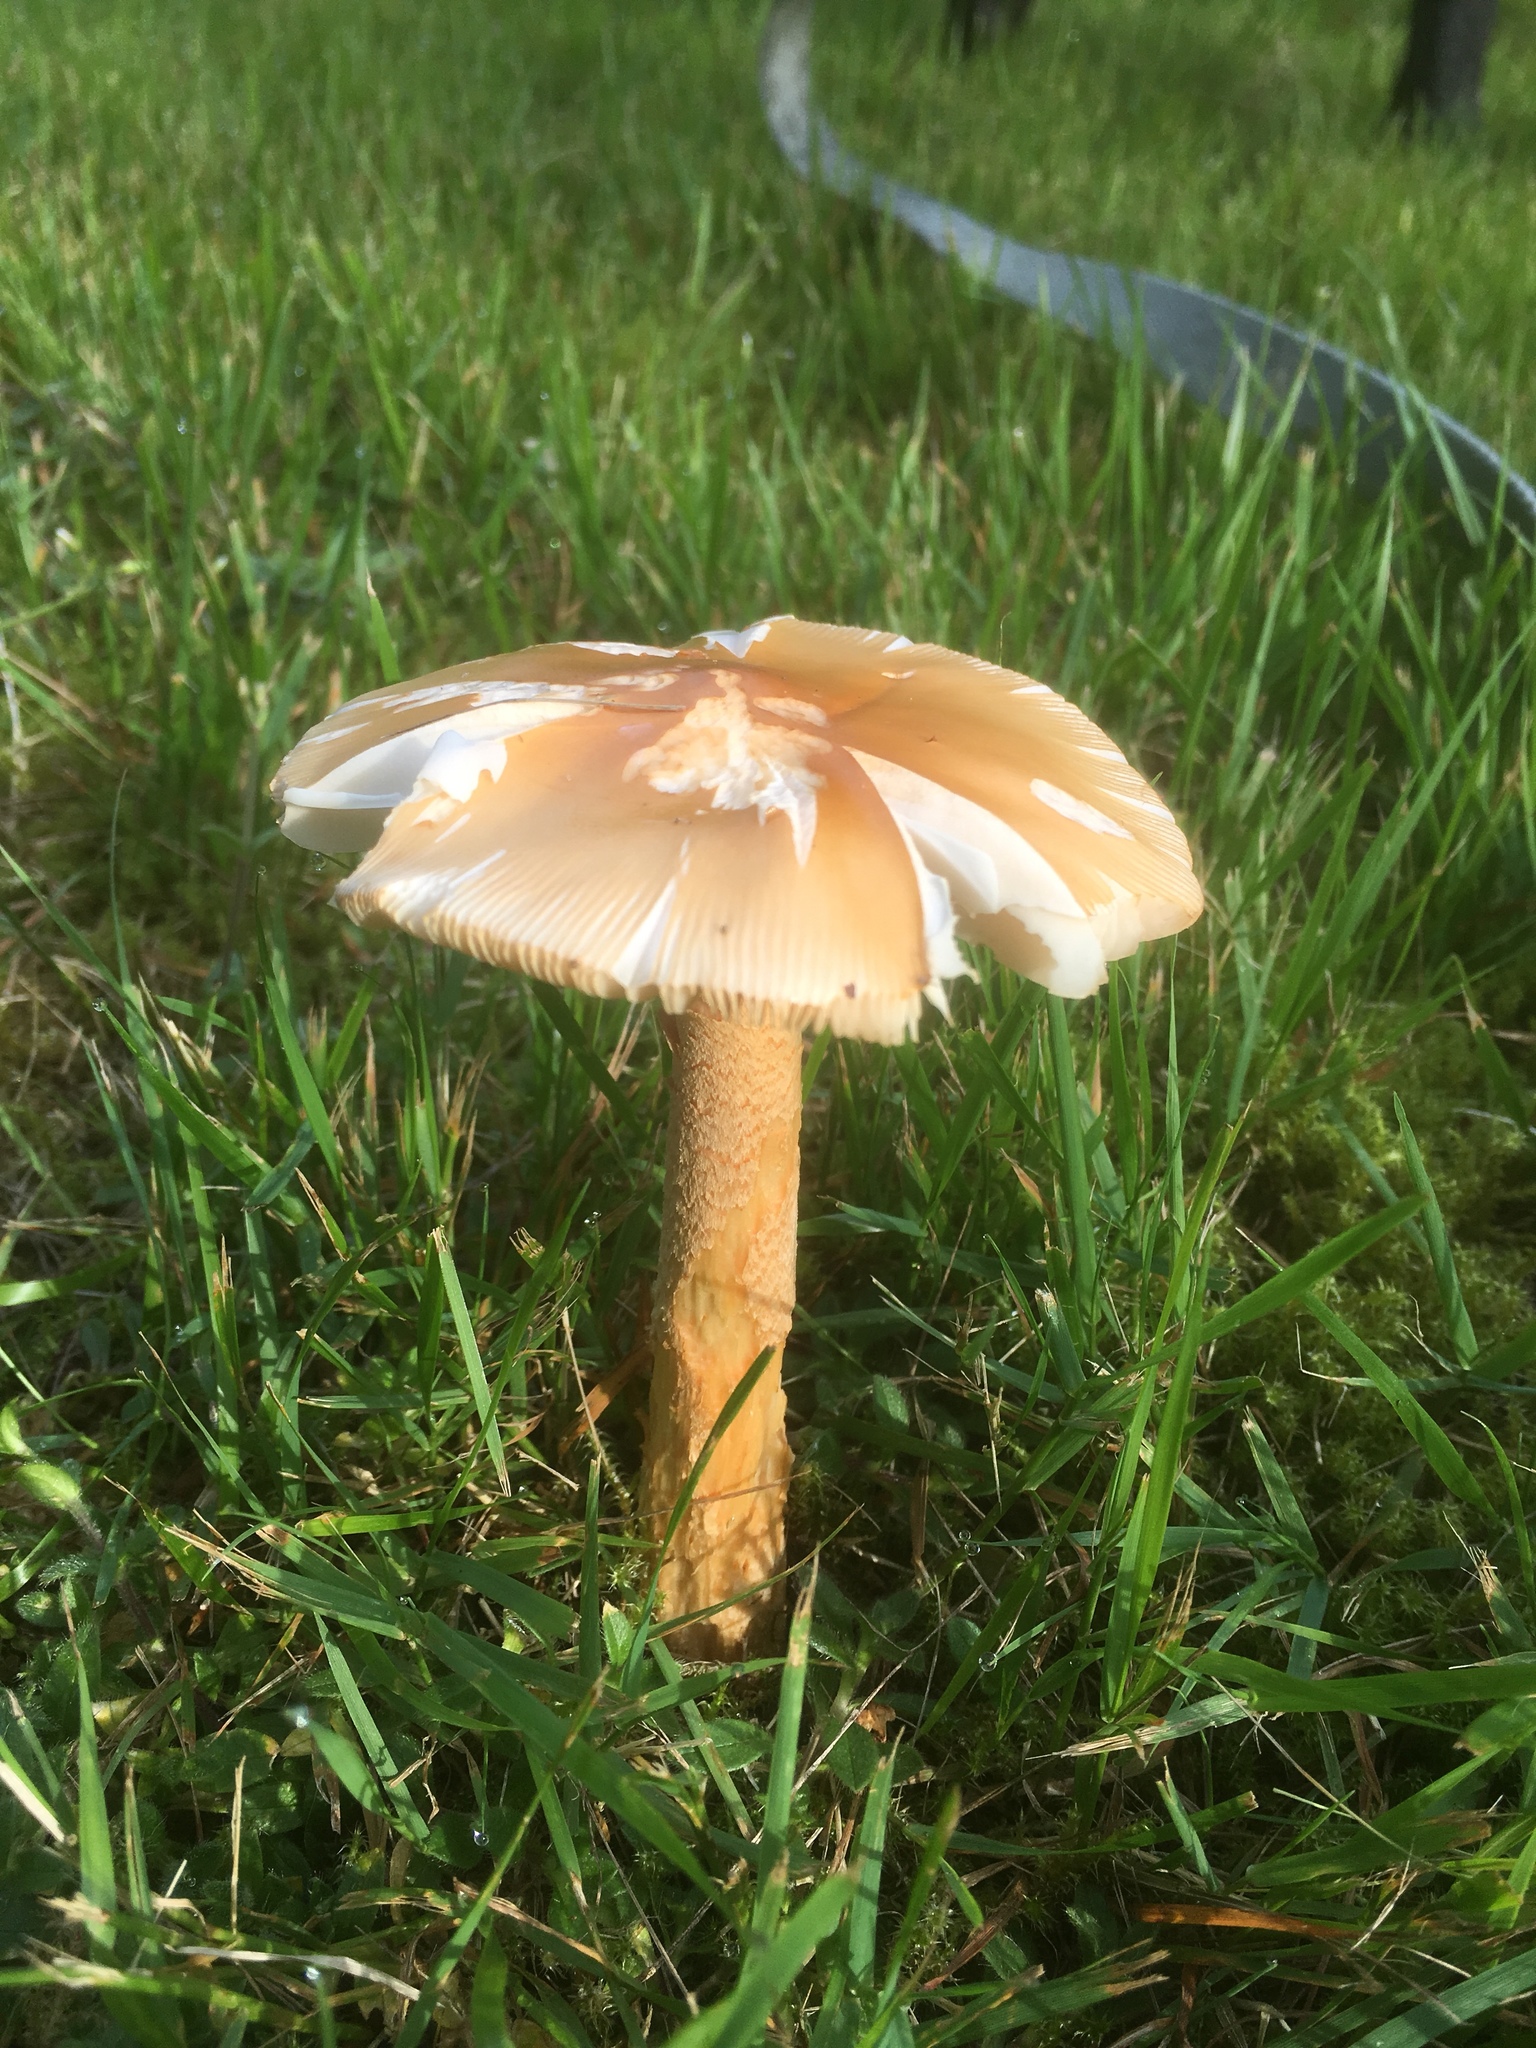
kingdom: Fungi
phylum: Basidiomycota
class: Agaricomycetes
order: Agaricales
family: Amanitaceae
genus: Amanita
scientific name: Amanita crocea
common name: Orange grisette
